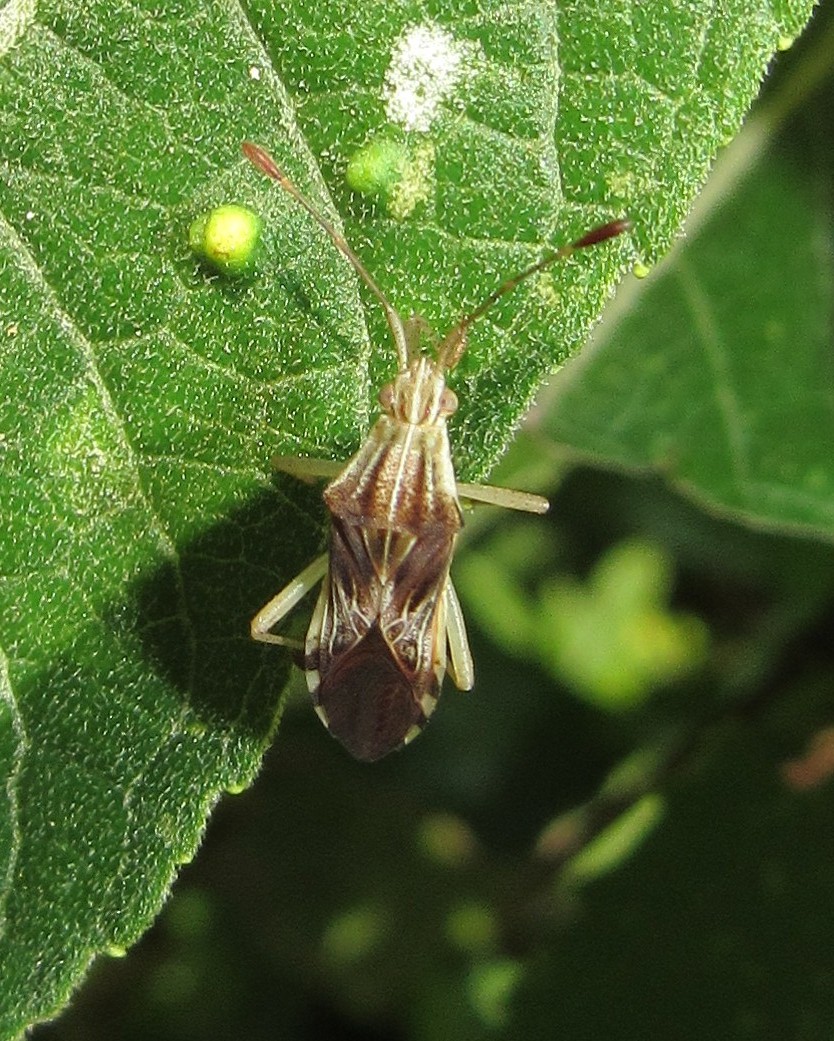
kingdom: Animalia
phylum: Arthropoda
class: Insecta
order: Hemiptera
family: Coreidae
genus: Cebrenis
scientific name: Cebrenis centrolineata
